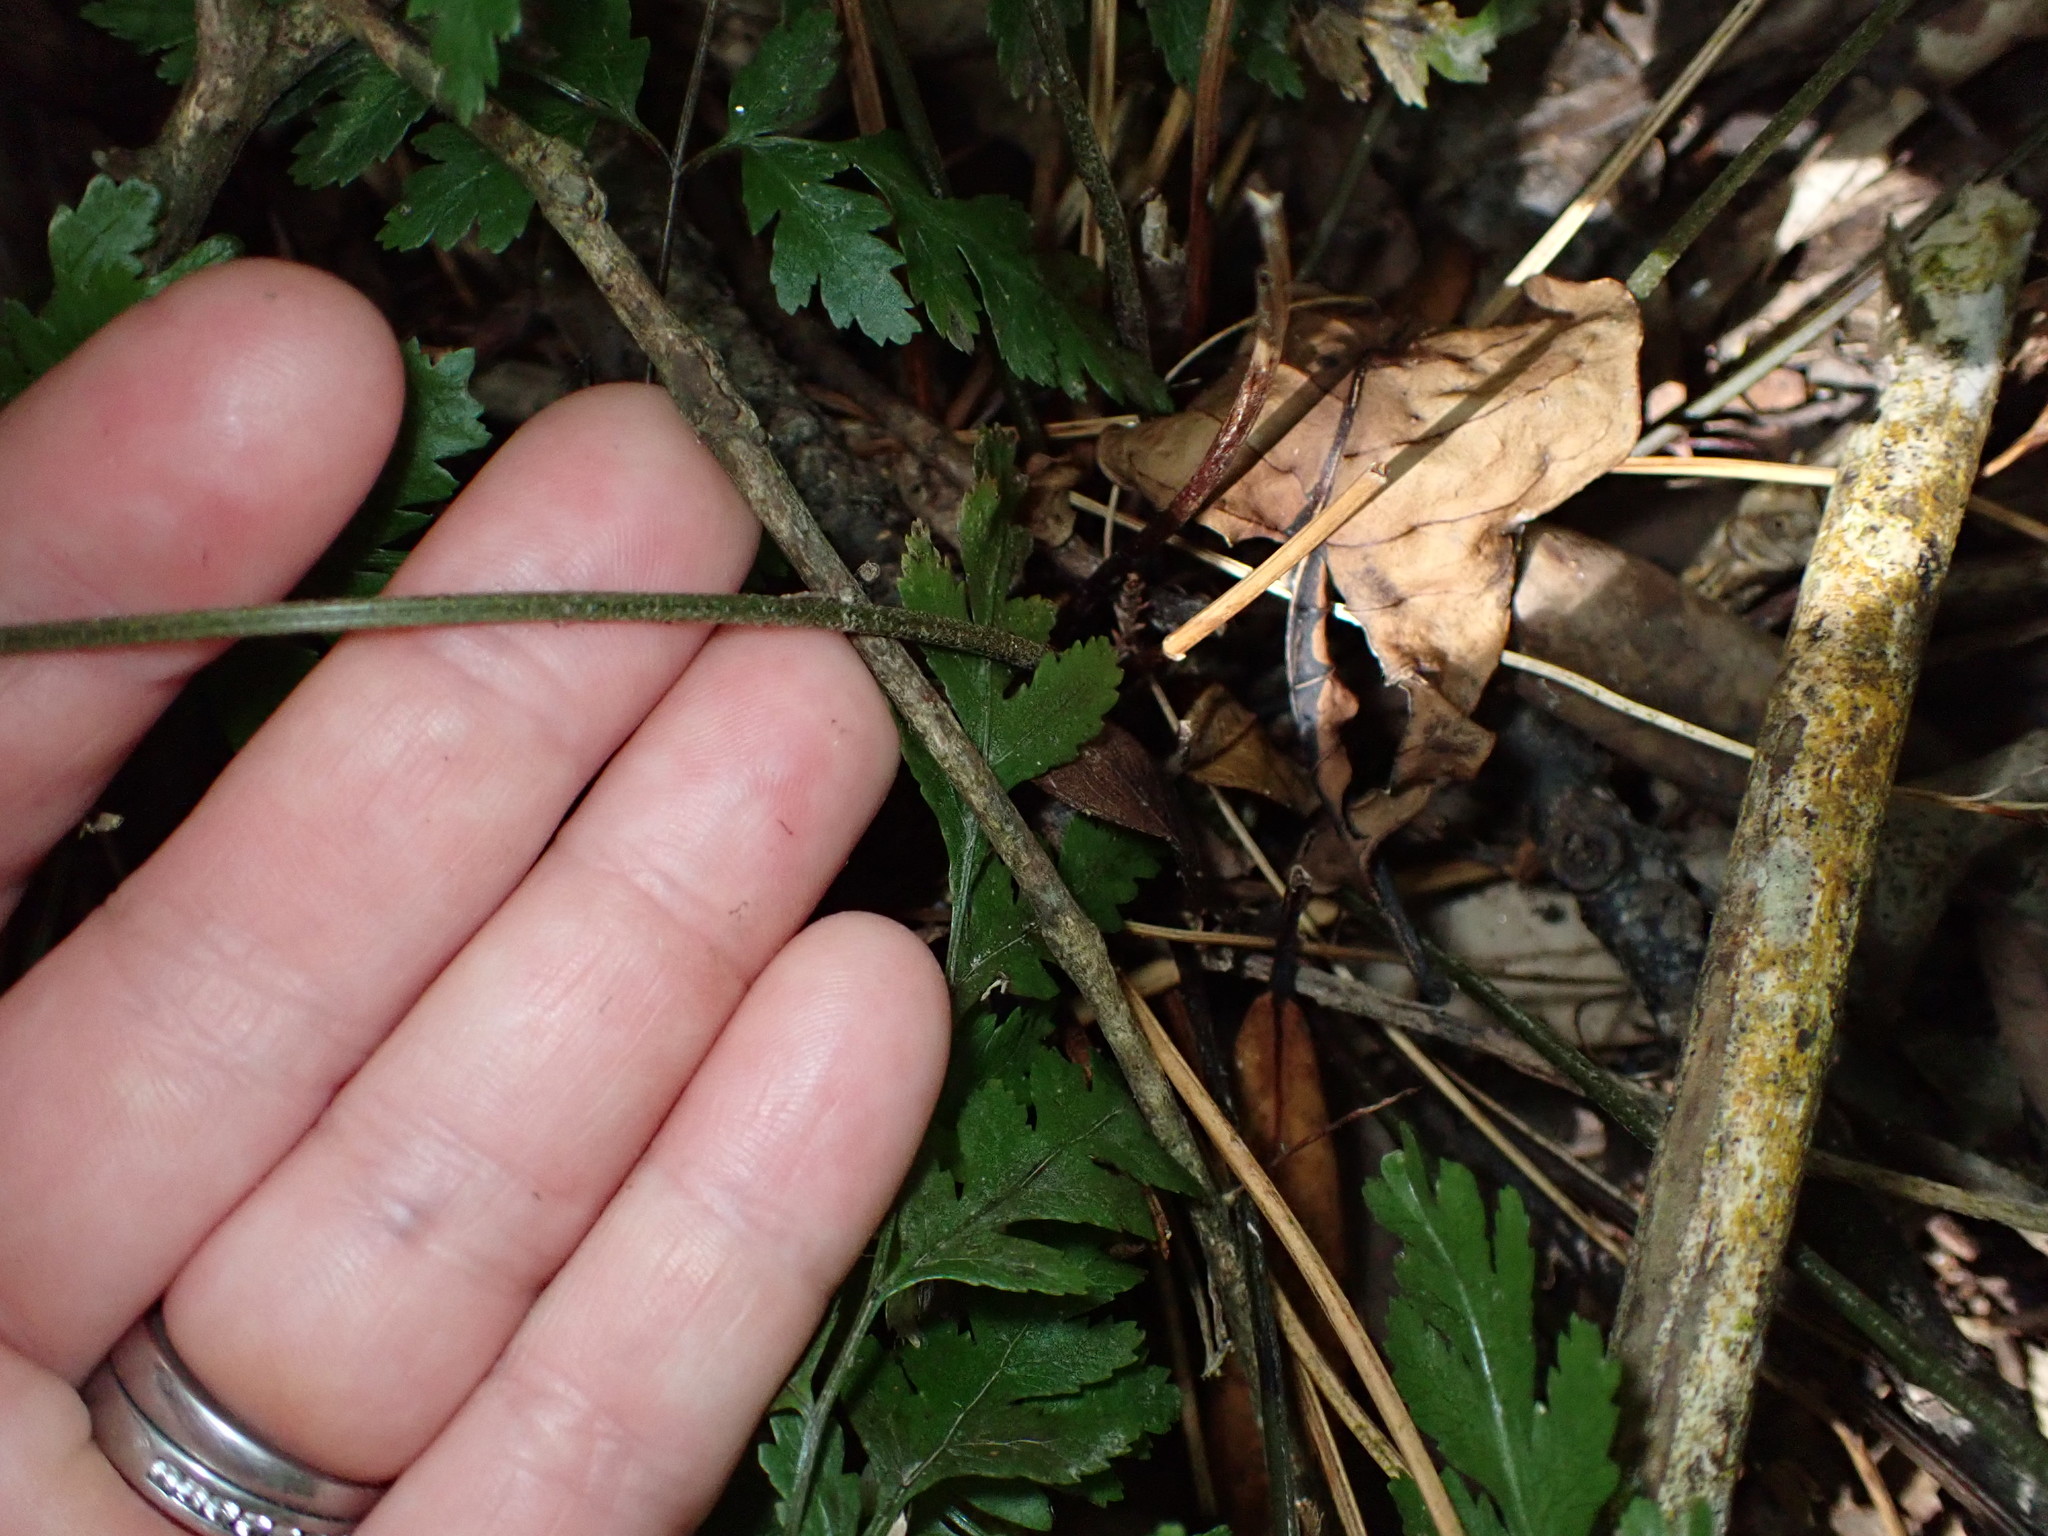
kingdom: Plantae
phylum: Tracheophyta
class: Polypodiopsida
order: Polypodiales
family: Pteridaceae
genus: Pteris
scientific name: Pteris macilenta
